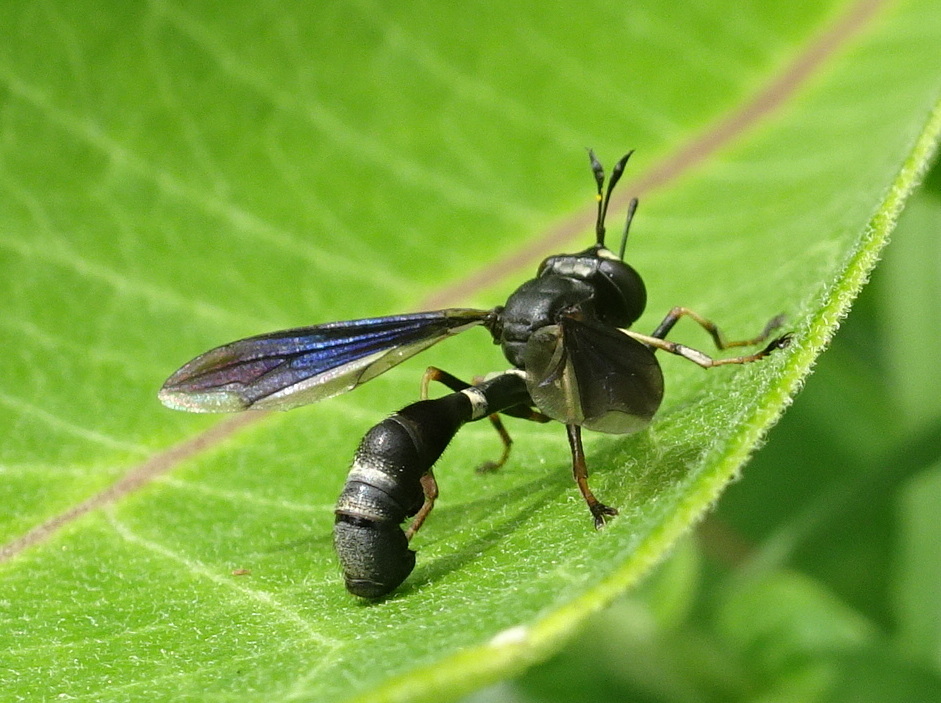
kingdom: Animalia
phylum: Arthropoda
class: Insecta
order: Diptera
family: Conopidae
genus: Physocephala
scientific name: Physocephala tibialis
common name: Common eastern physocephala
